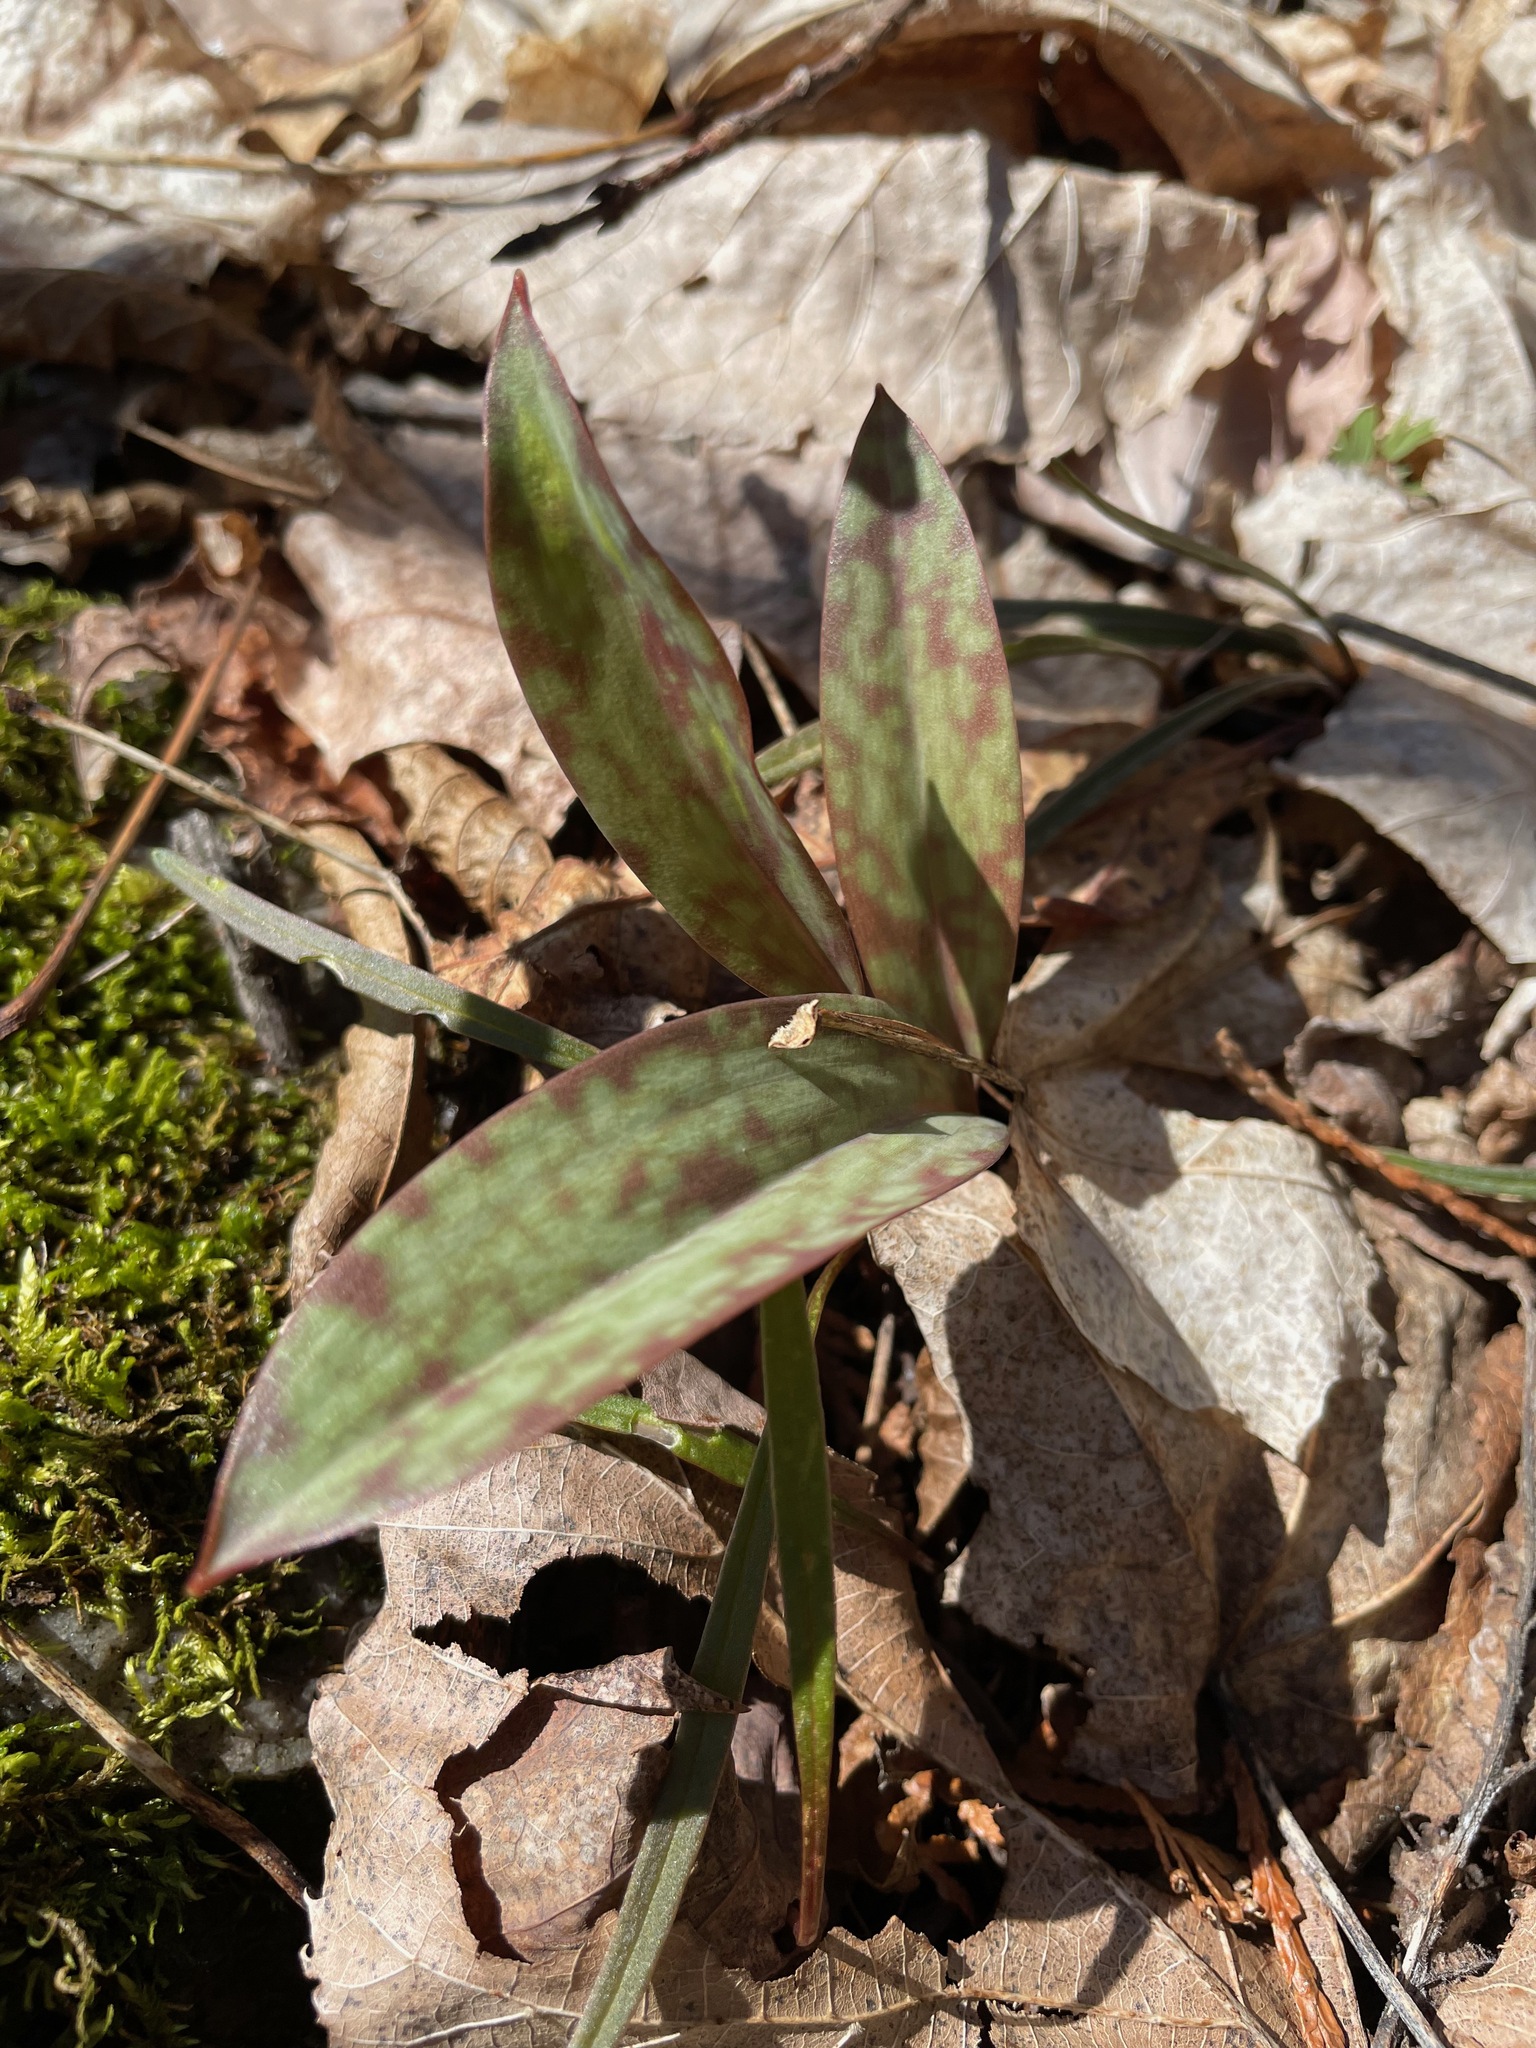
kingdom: Plantae
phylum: Tracheophyta
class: Liliopsida
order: Liliales
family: Liliaceae
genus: Erythronium
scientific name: Erythronium americanum
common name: Yellow adder's-tongue
